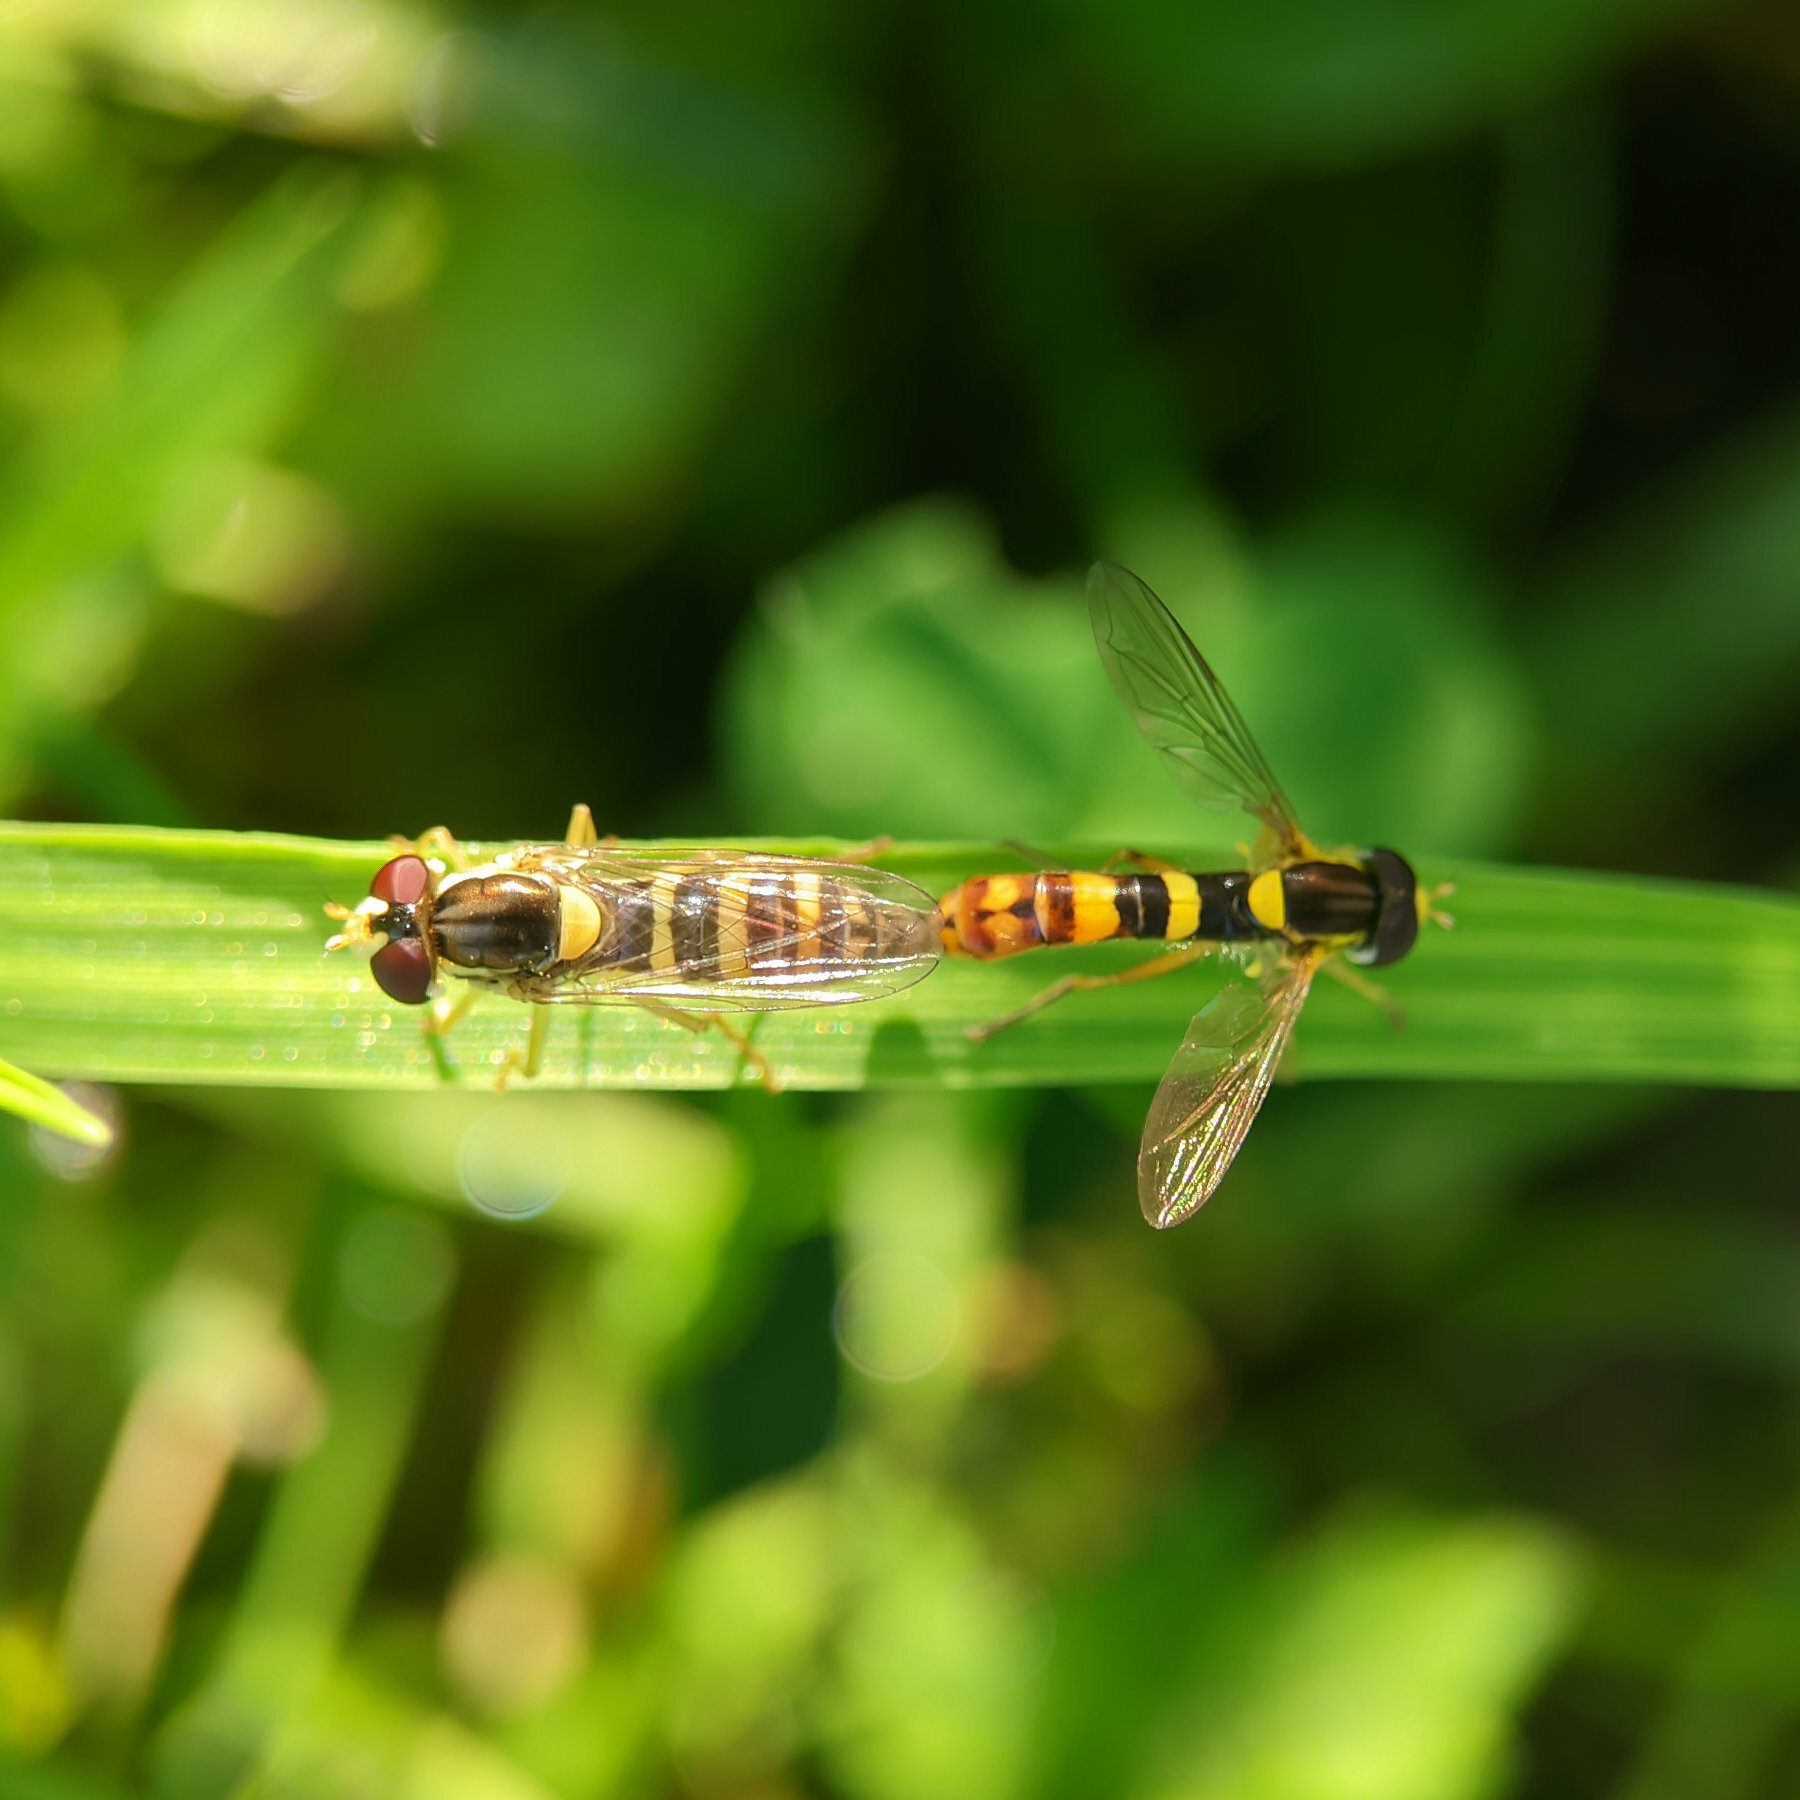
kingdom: Animalia
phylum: Arthropoda
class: Insecta
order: Diptera
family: Syrphidae
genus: Sphaerophoria
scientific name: Sphaerophoria scripta
